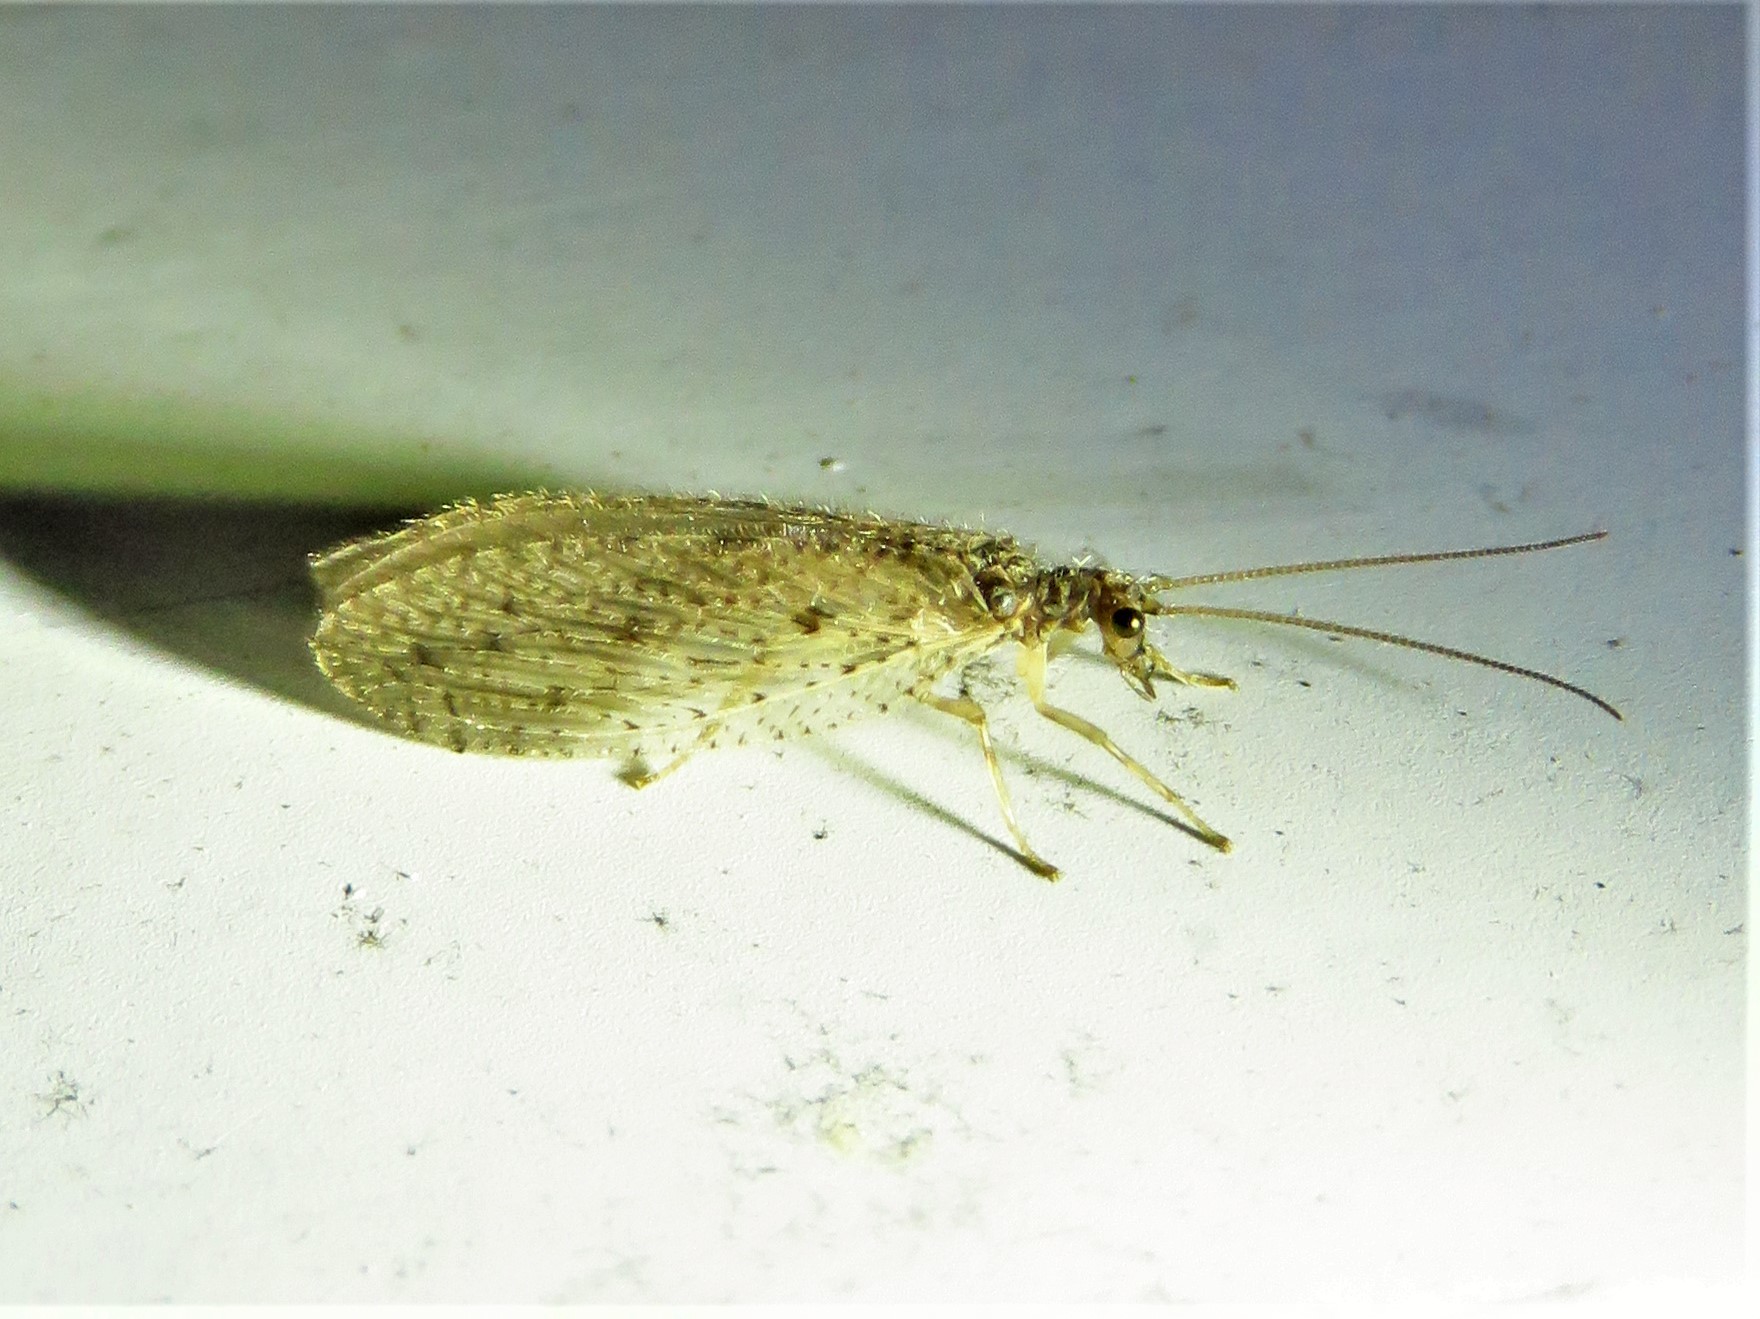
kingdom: Animalia
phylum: Arthropoda
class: Insecta
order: Neuroptera
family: Hemerobiidae
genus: Micromus
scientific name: Micromus subanticus
